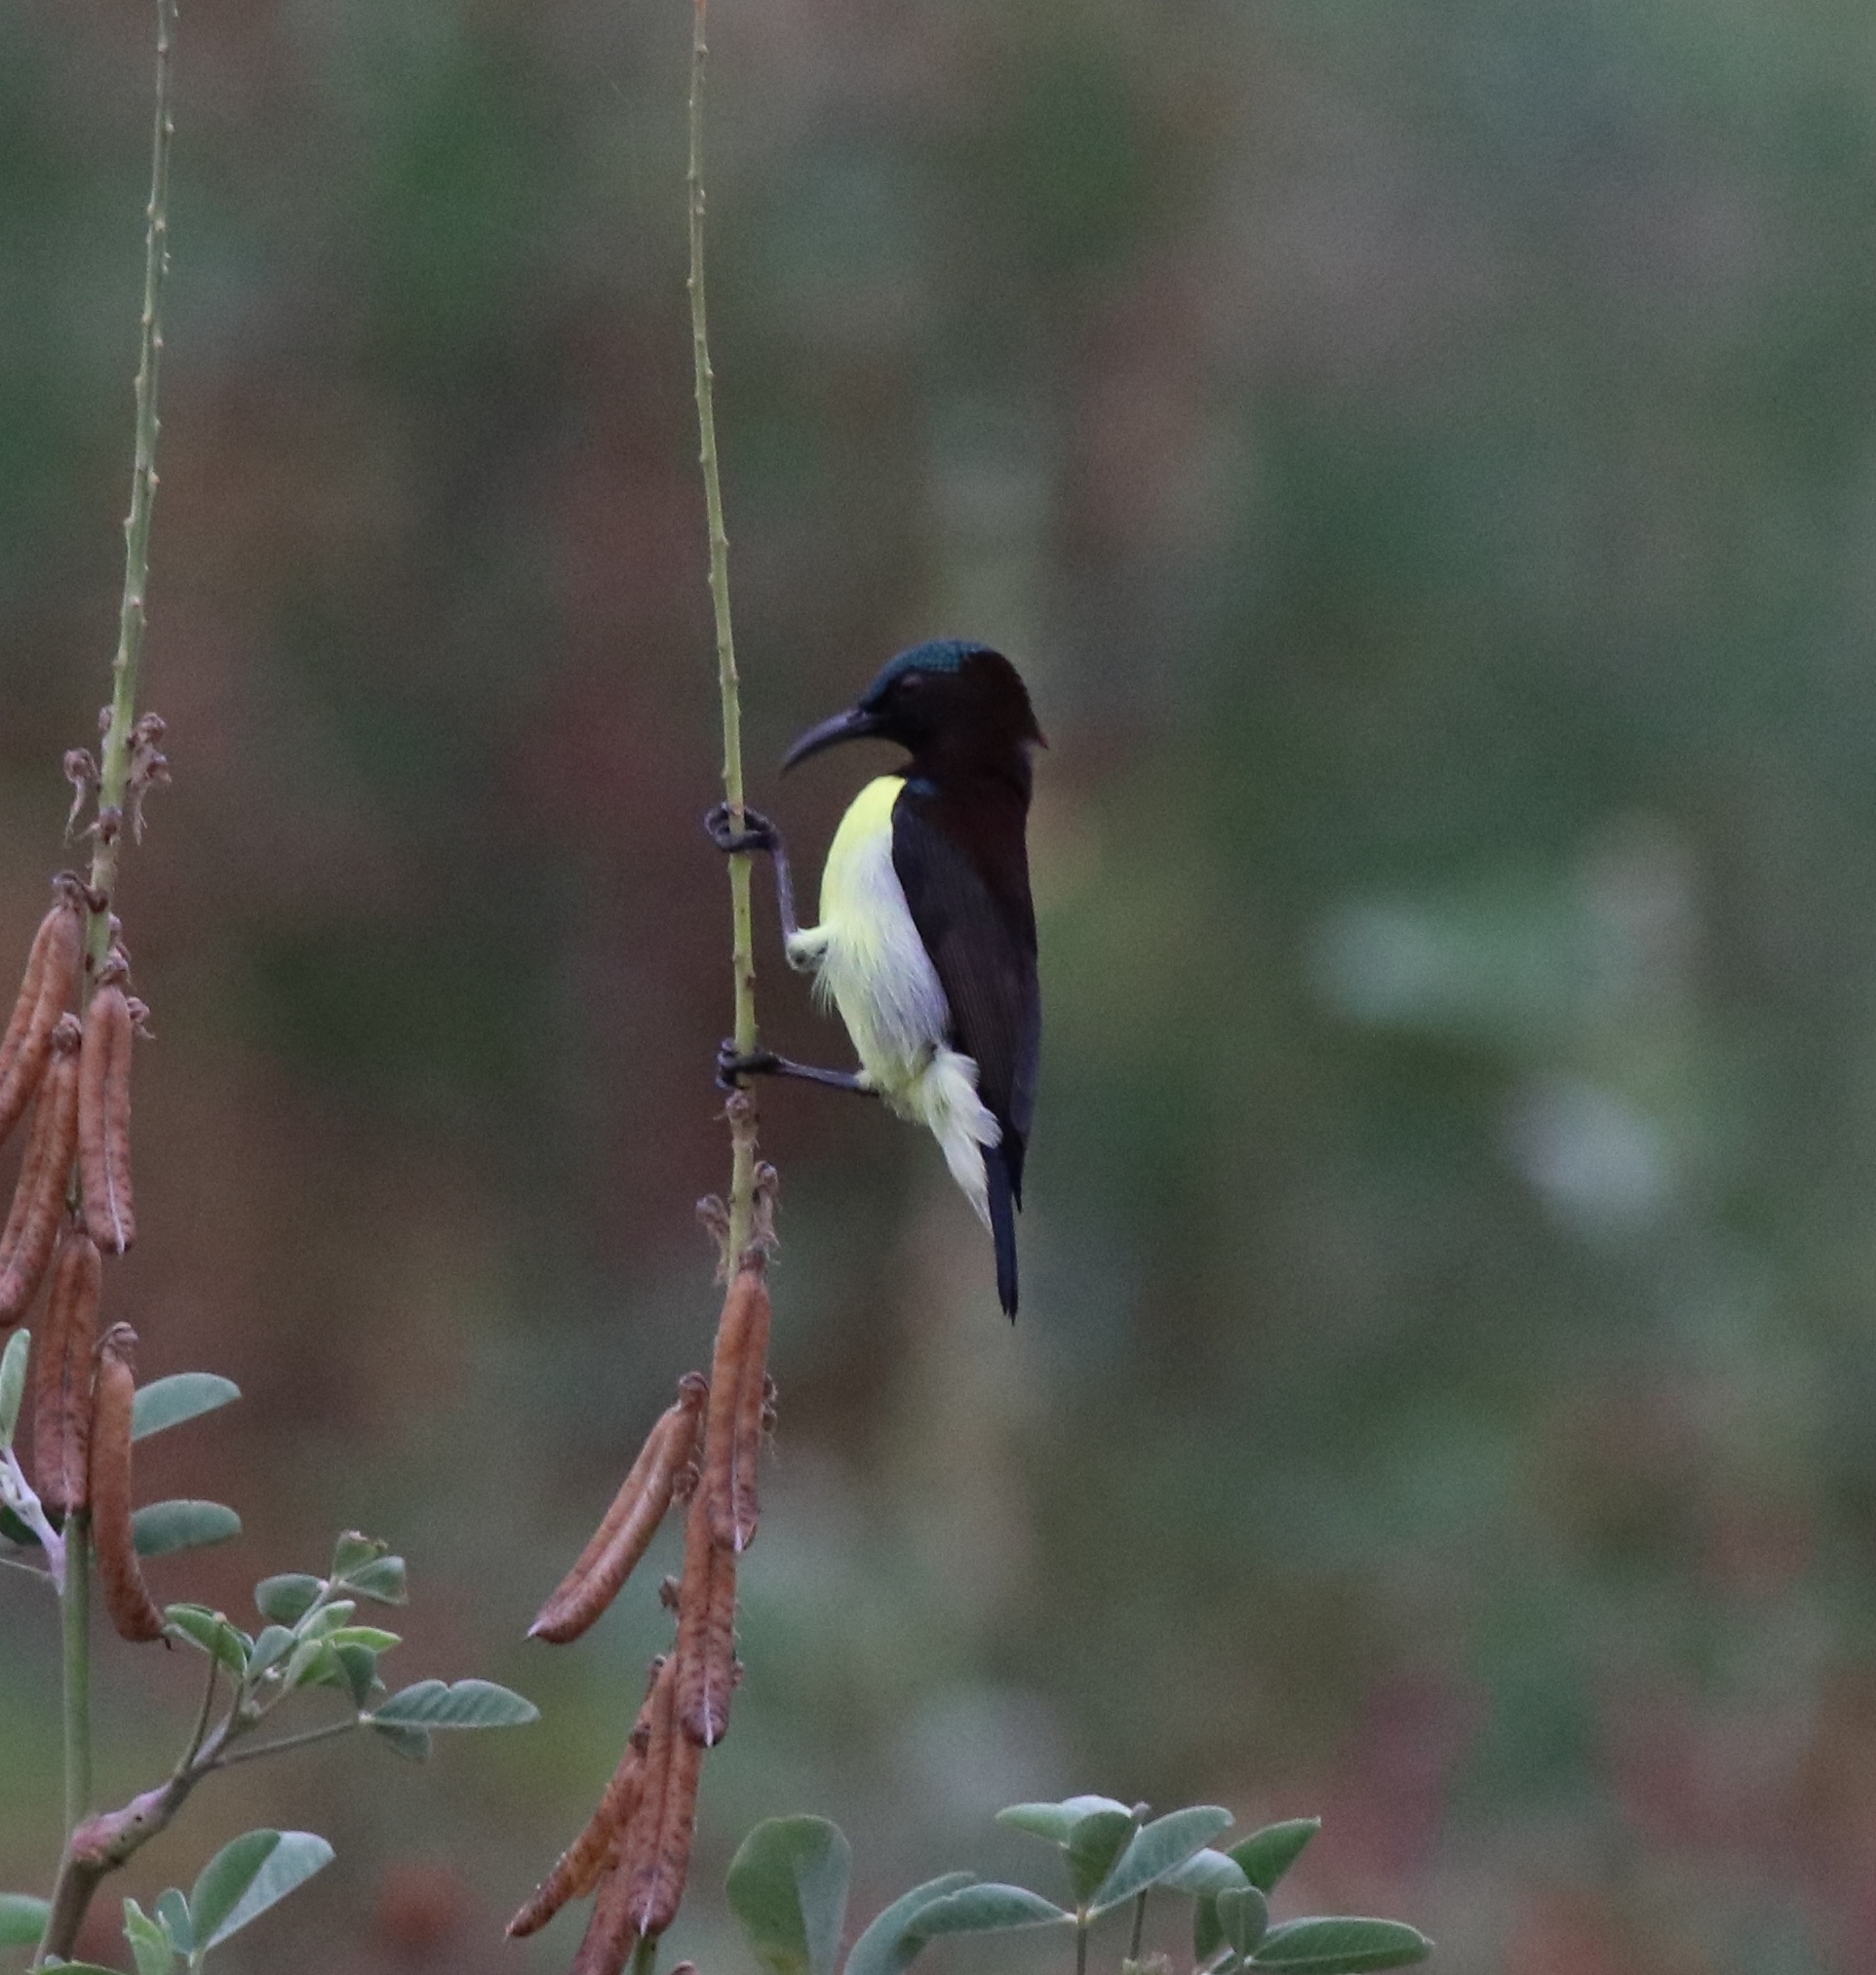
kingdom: Animalia
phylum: Chordata
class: Aves
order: Passeriformes
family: Nectariniidae
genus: Leptocoma
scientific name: Leptocoma zeylonica
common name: Purple-rumped sunbird
